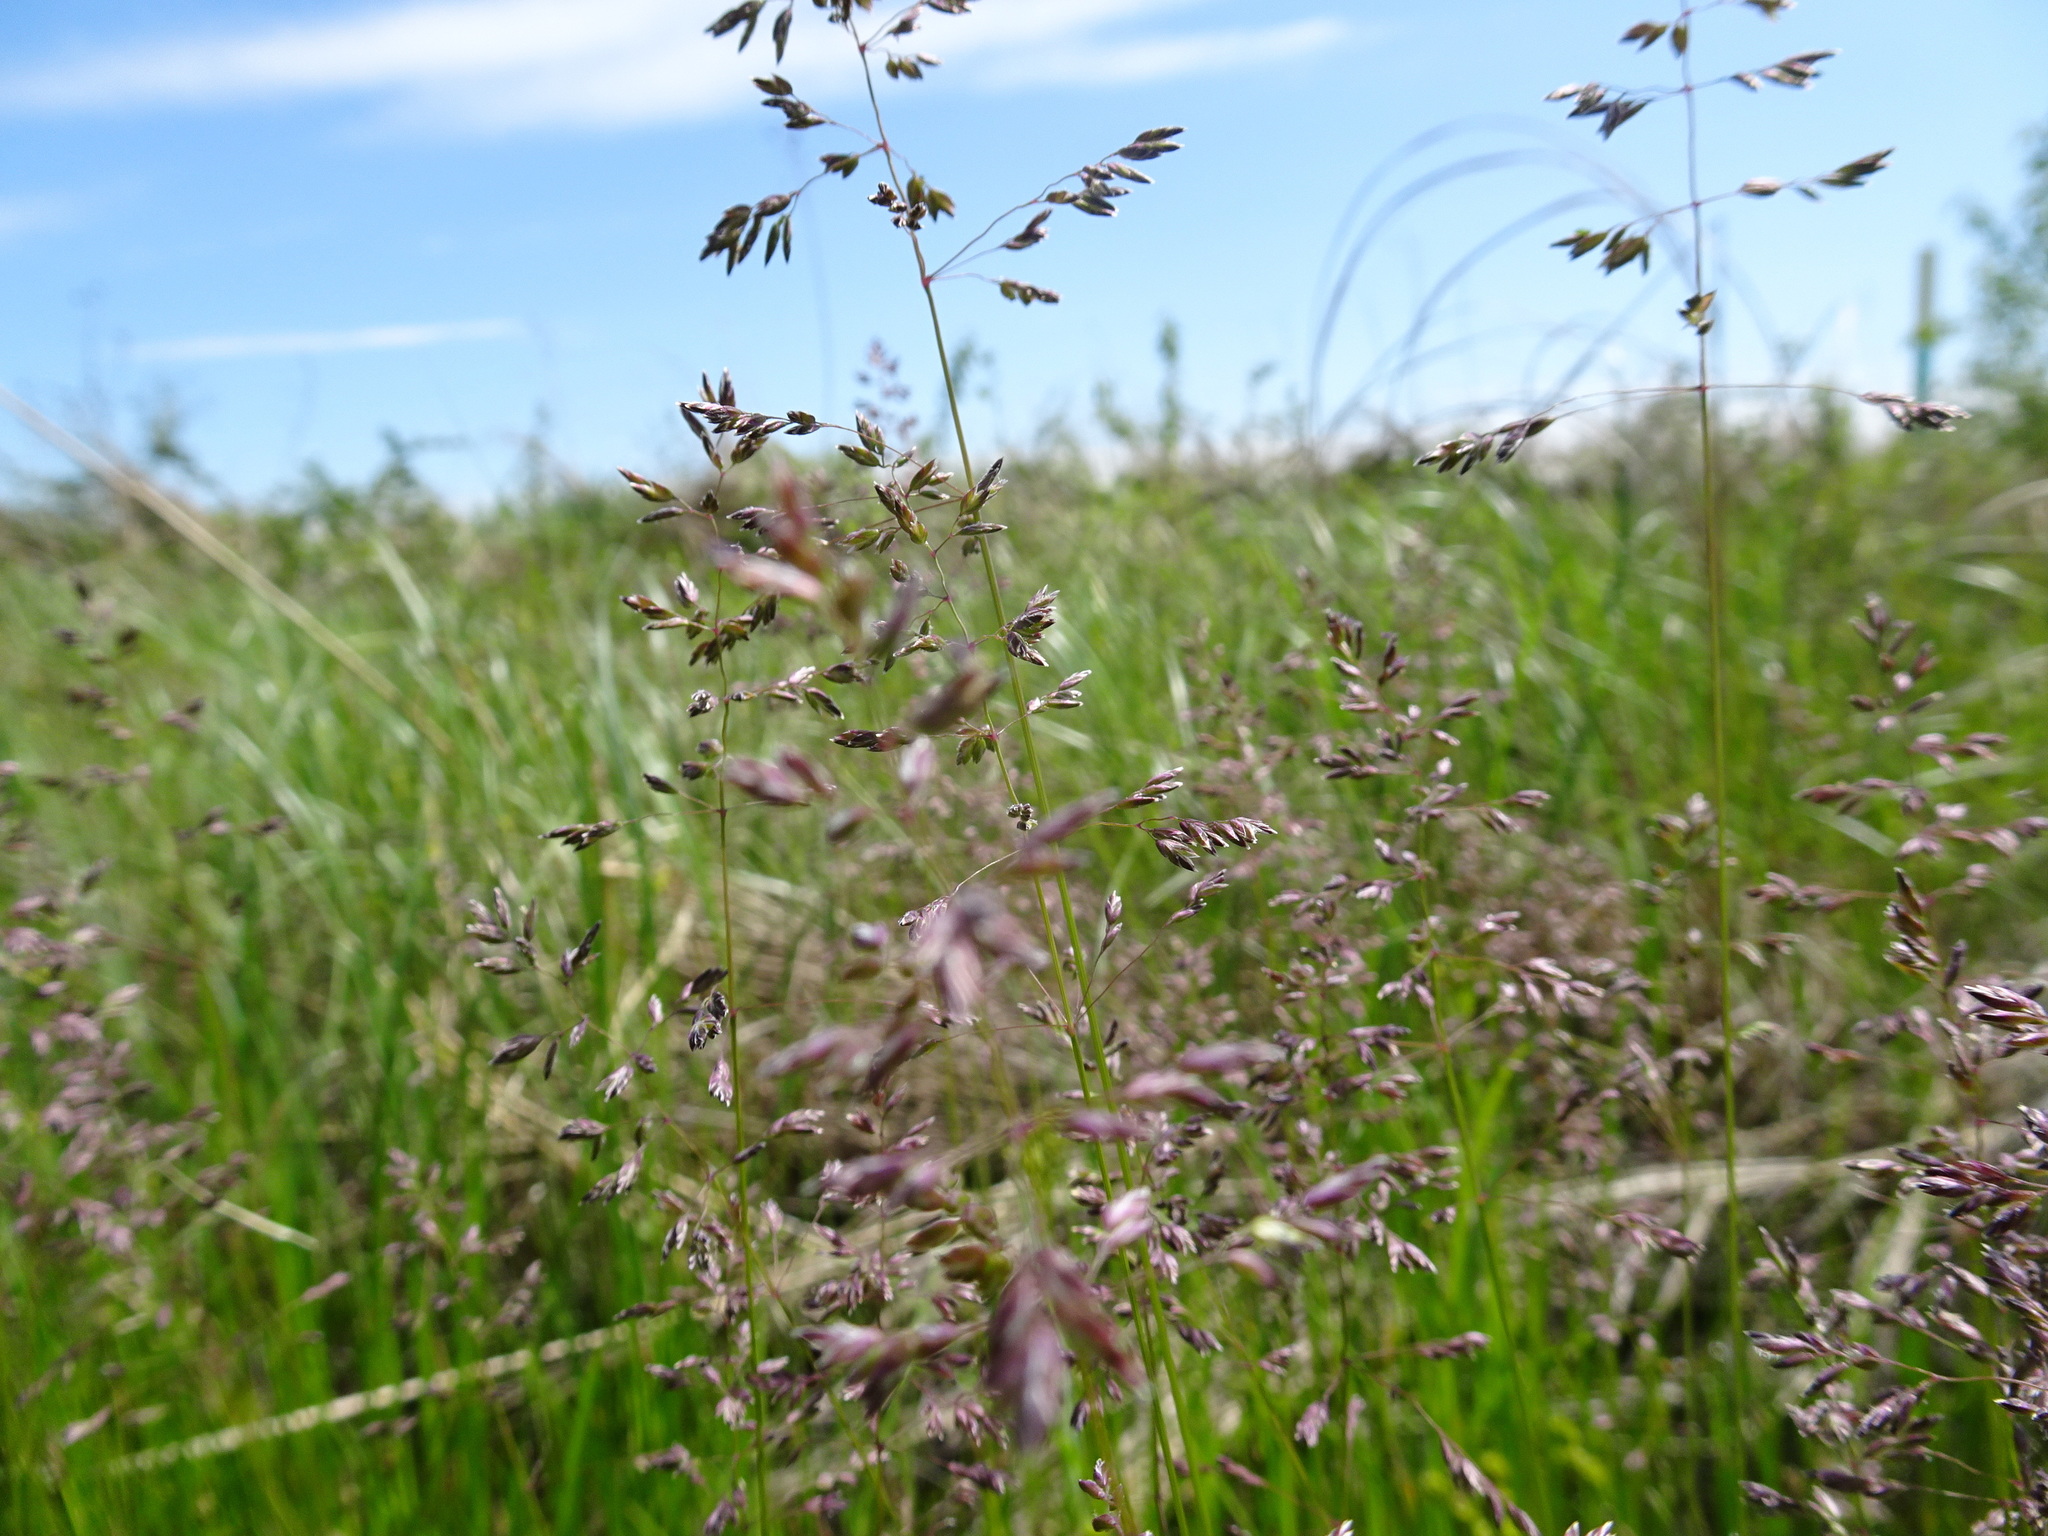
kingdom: Plantae
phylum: Tracheophyta
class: Liliopsida
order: Poales
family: Poaceae
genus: Poa
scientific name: Poa pratensis
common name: Kentucky bluegrass
